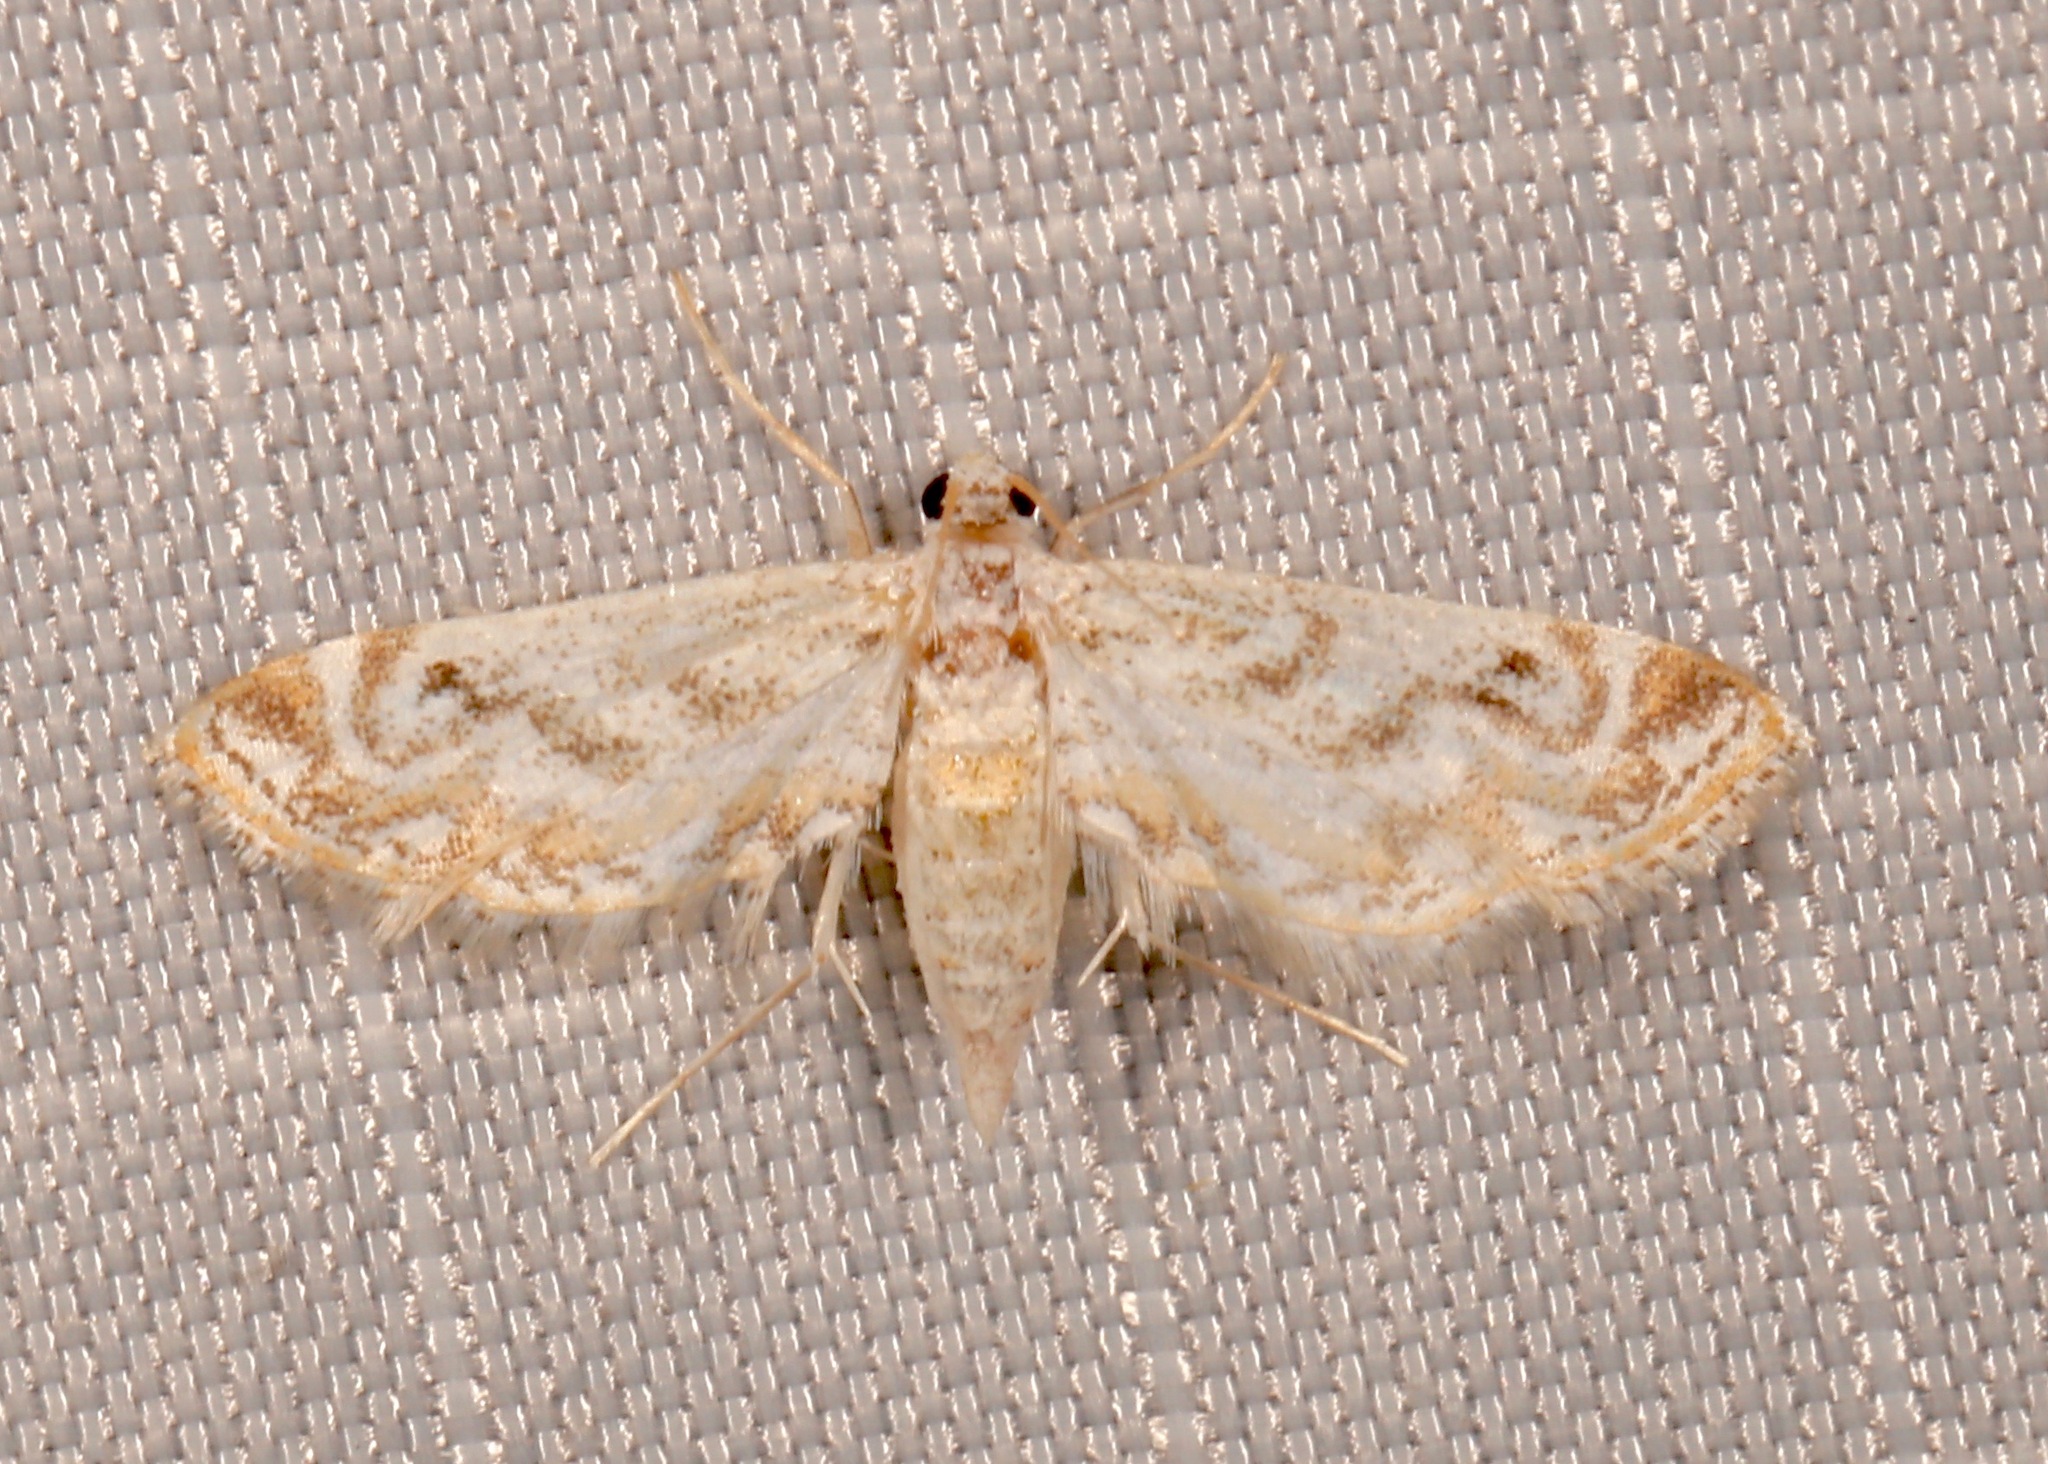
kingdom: Animalia
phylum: Arthropoda
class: Insecta
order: Lepidoptera
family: Crambidae
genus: Parapoynx
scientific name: Parapoynx diminutalis
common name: Hydrilla leafcutter
